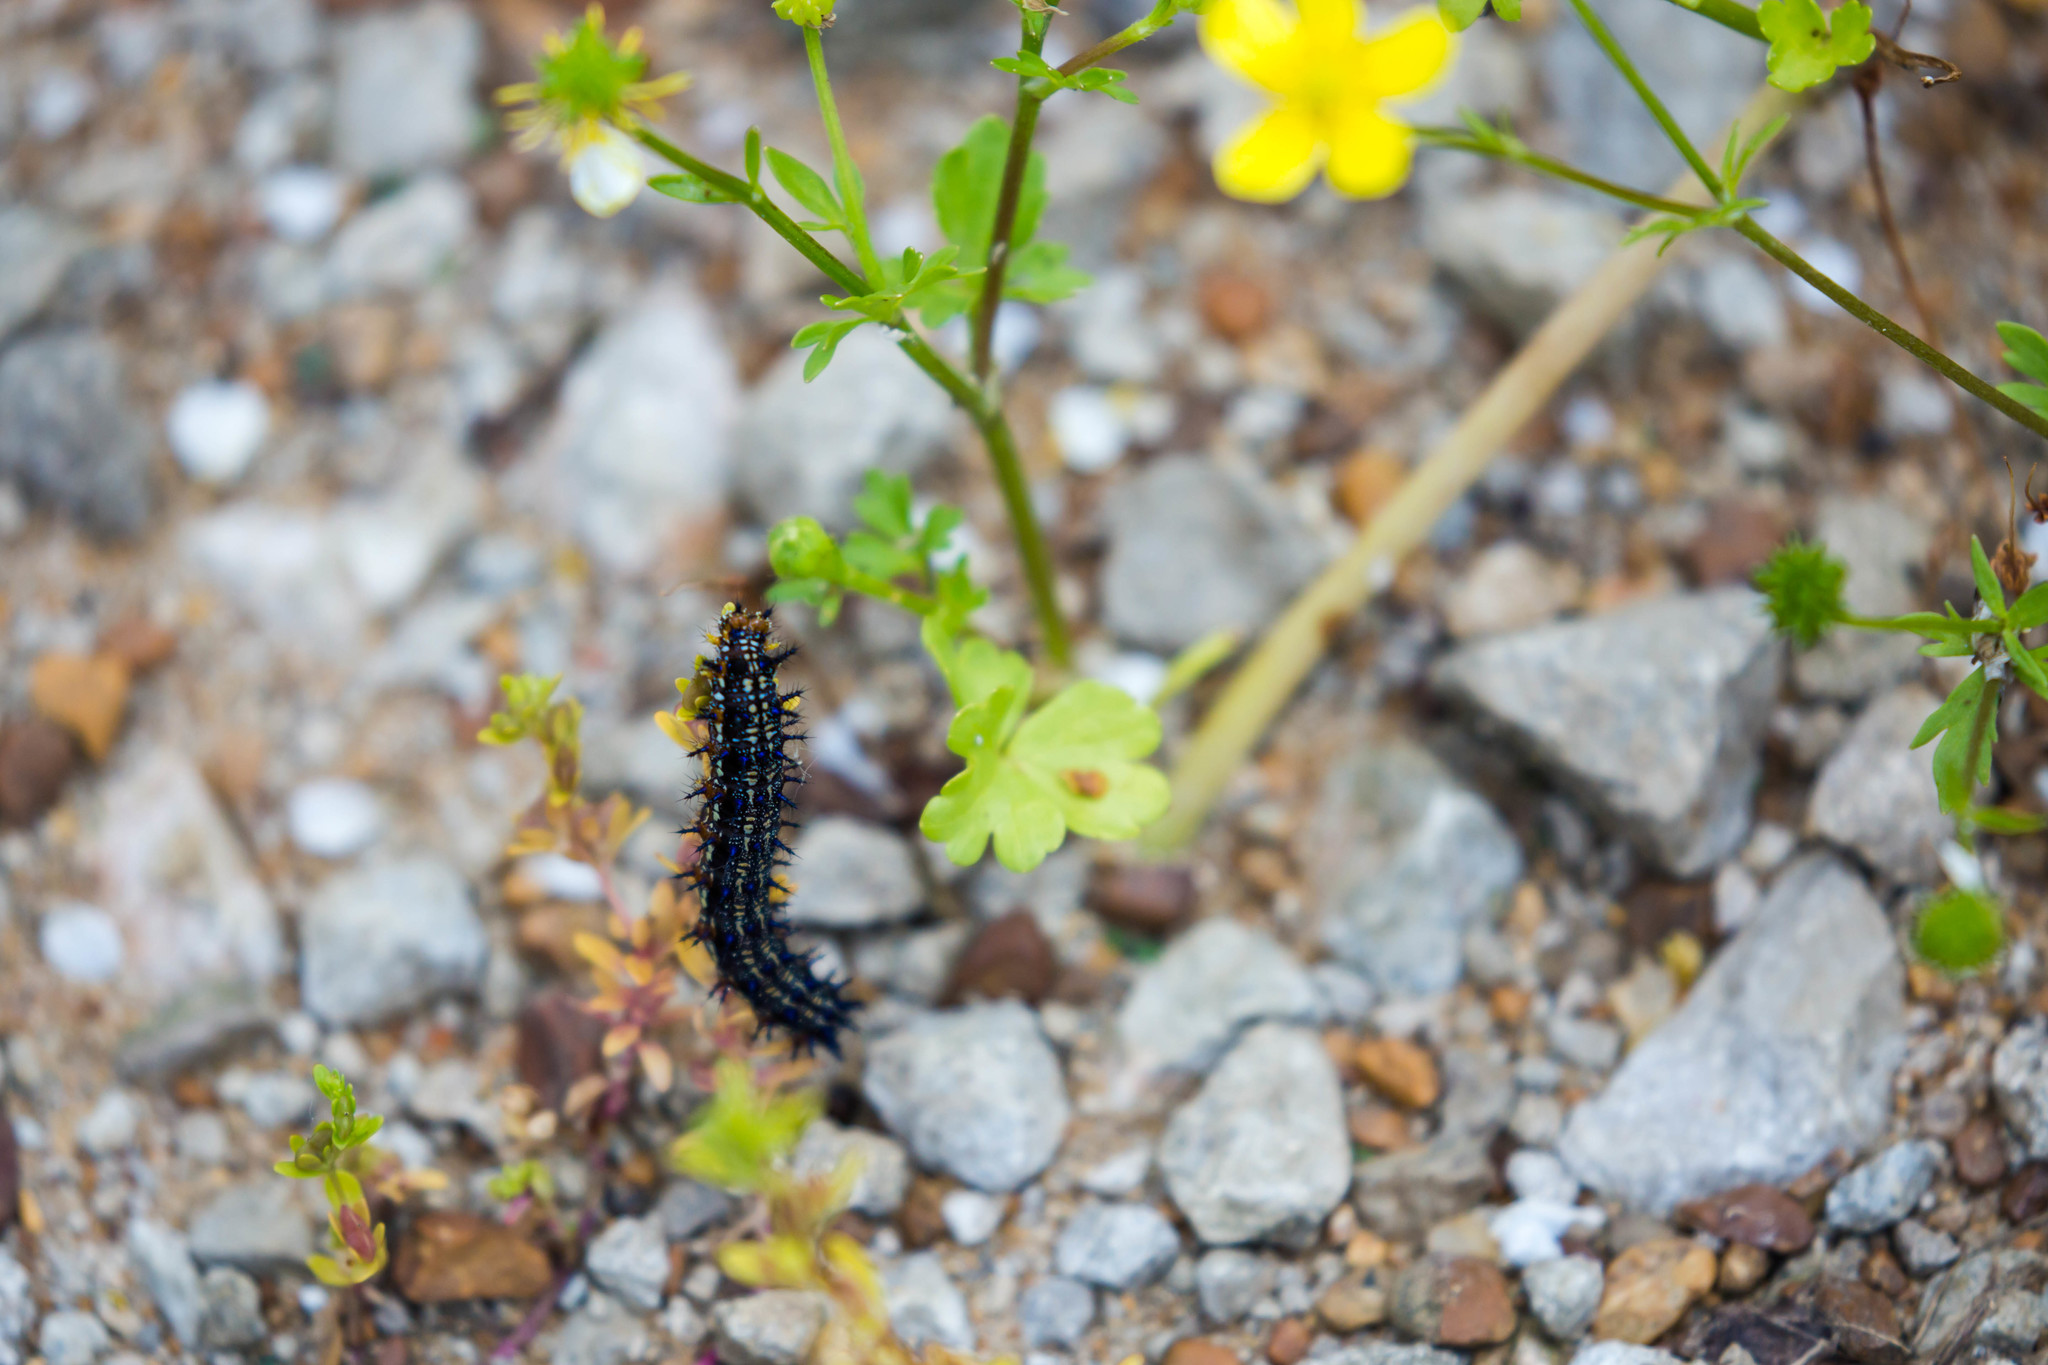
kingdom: Animalia
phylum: Arthropoda
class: Insecta
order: Lepidoptera
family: Nymphalidae
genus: Junonia
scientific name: Junonia coenia
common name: Common buckeye
